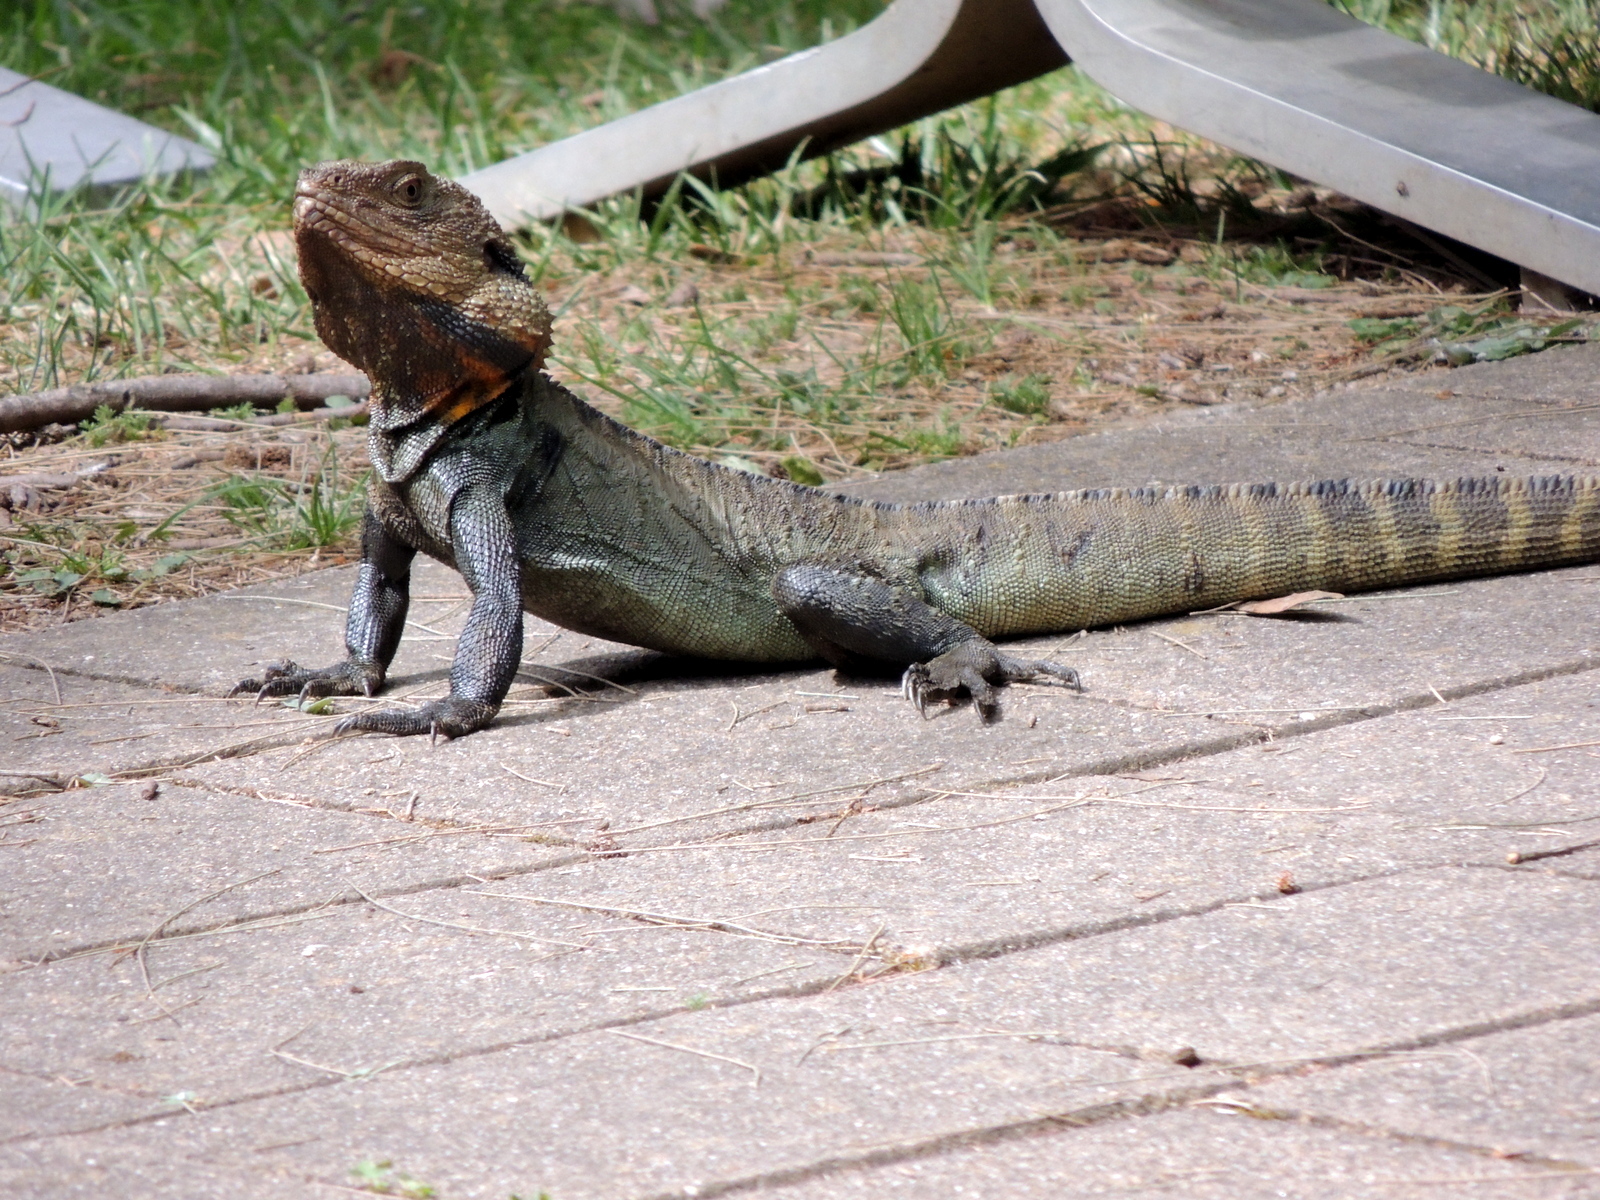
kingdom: Animalia
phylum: Chordata
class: Squamata
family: Agamidae
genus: Intellagama
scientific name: Intellagama lesueurii
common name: Eastern water dragon
